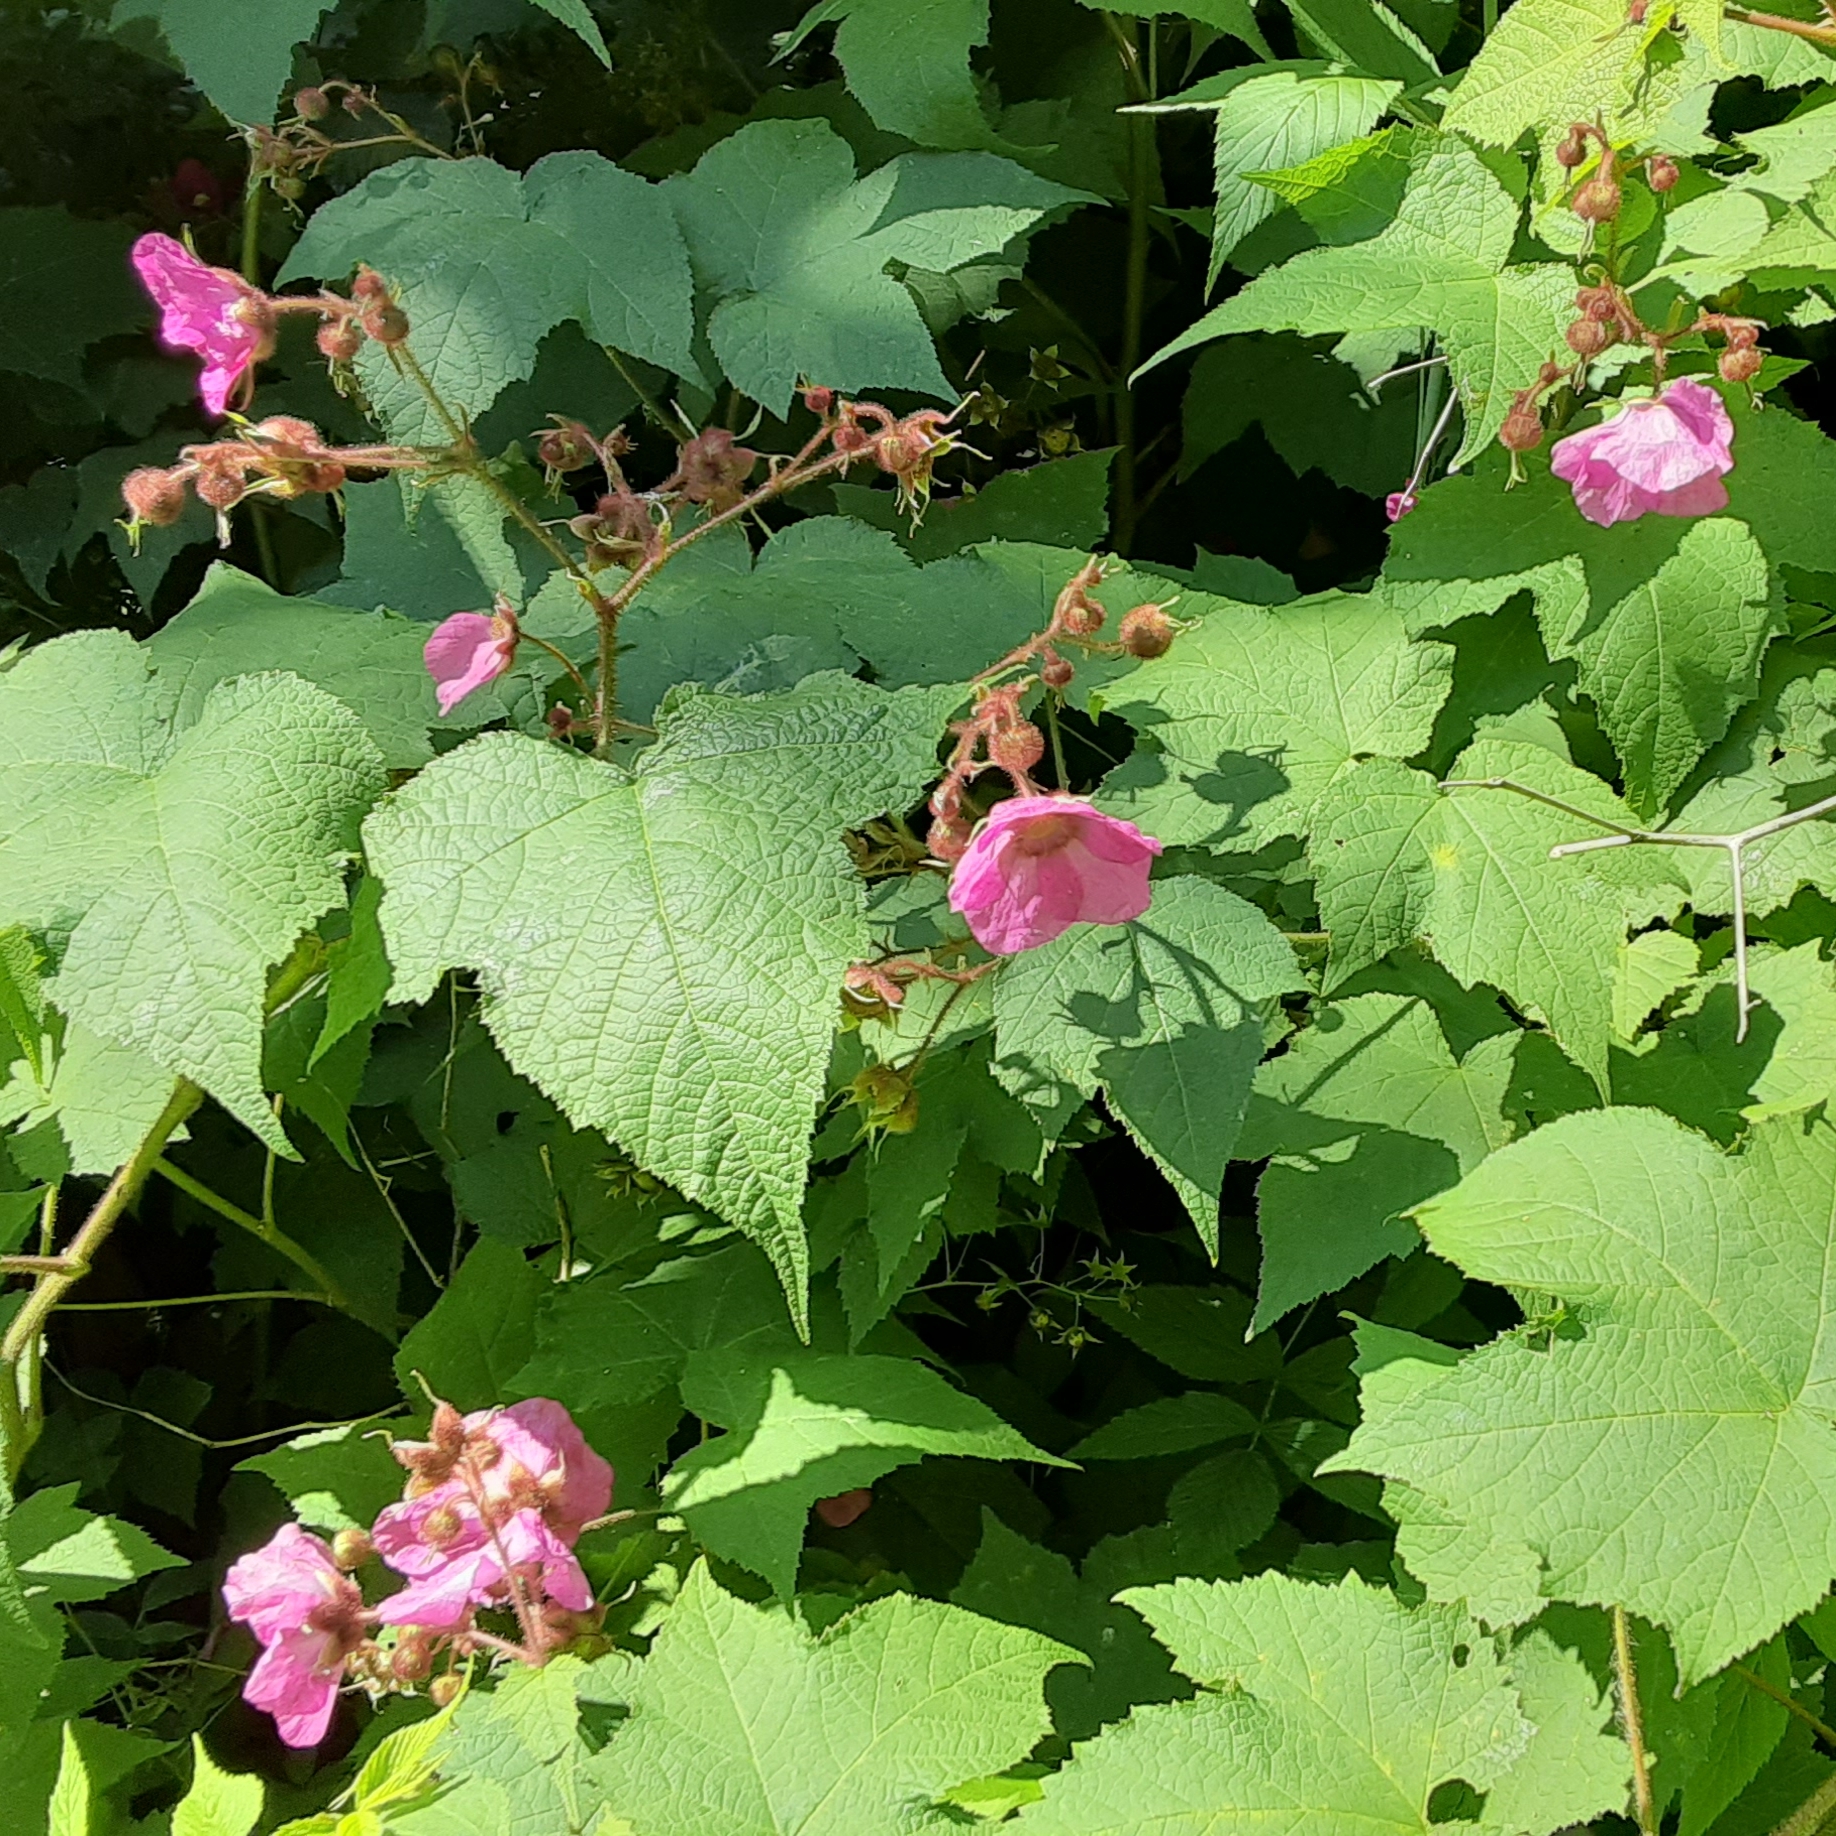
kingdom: Plantae
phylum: Tracheophyta
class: Magnoliopsida
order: Rosales
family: Rosaceae
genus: Rubus
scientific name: Rubus odoratus
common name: Purple-flowered raspberry
